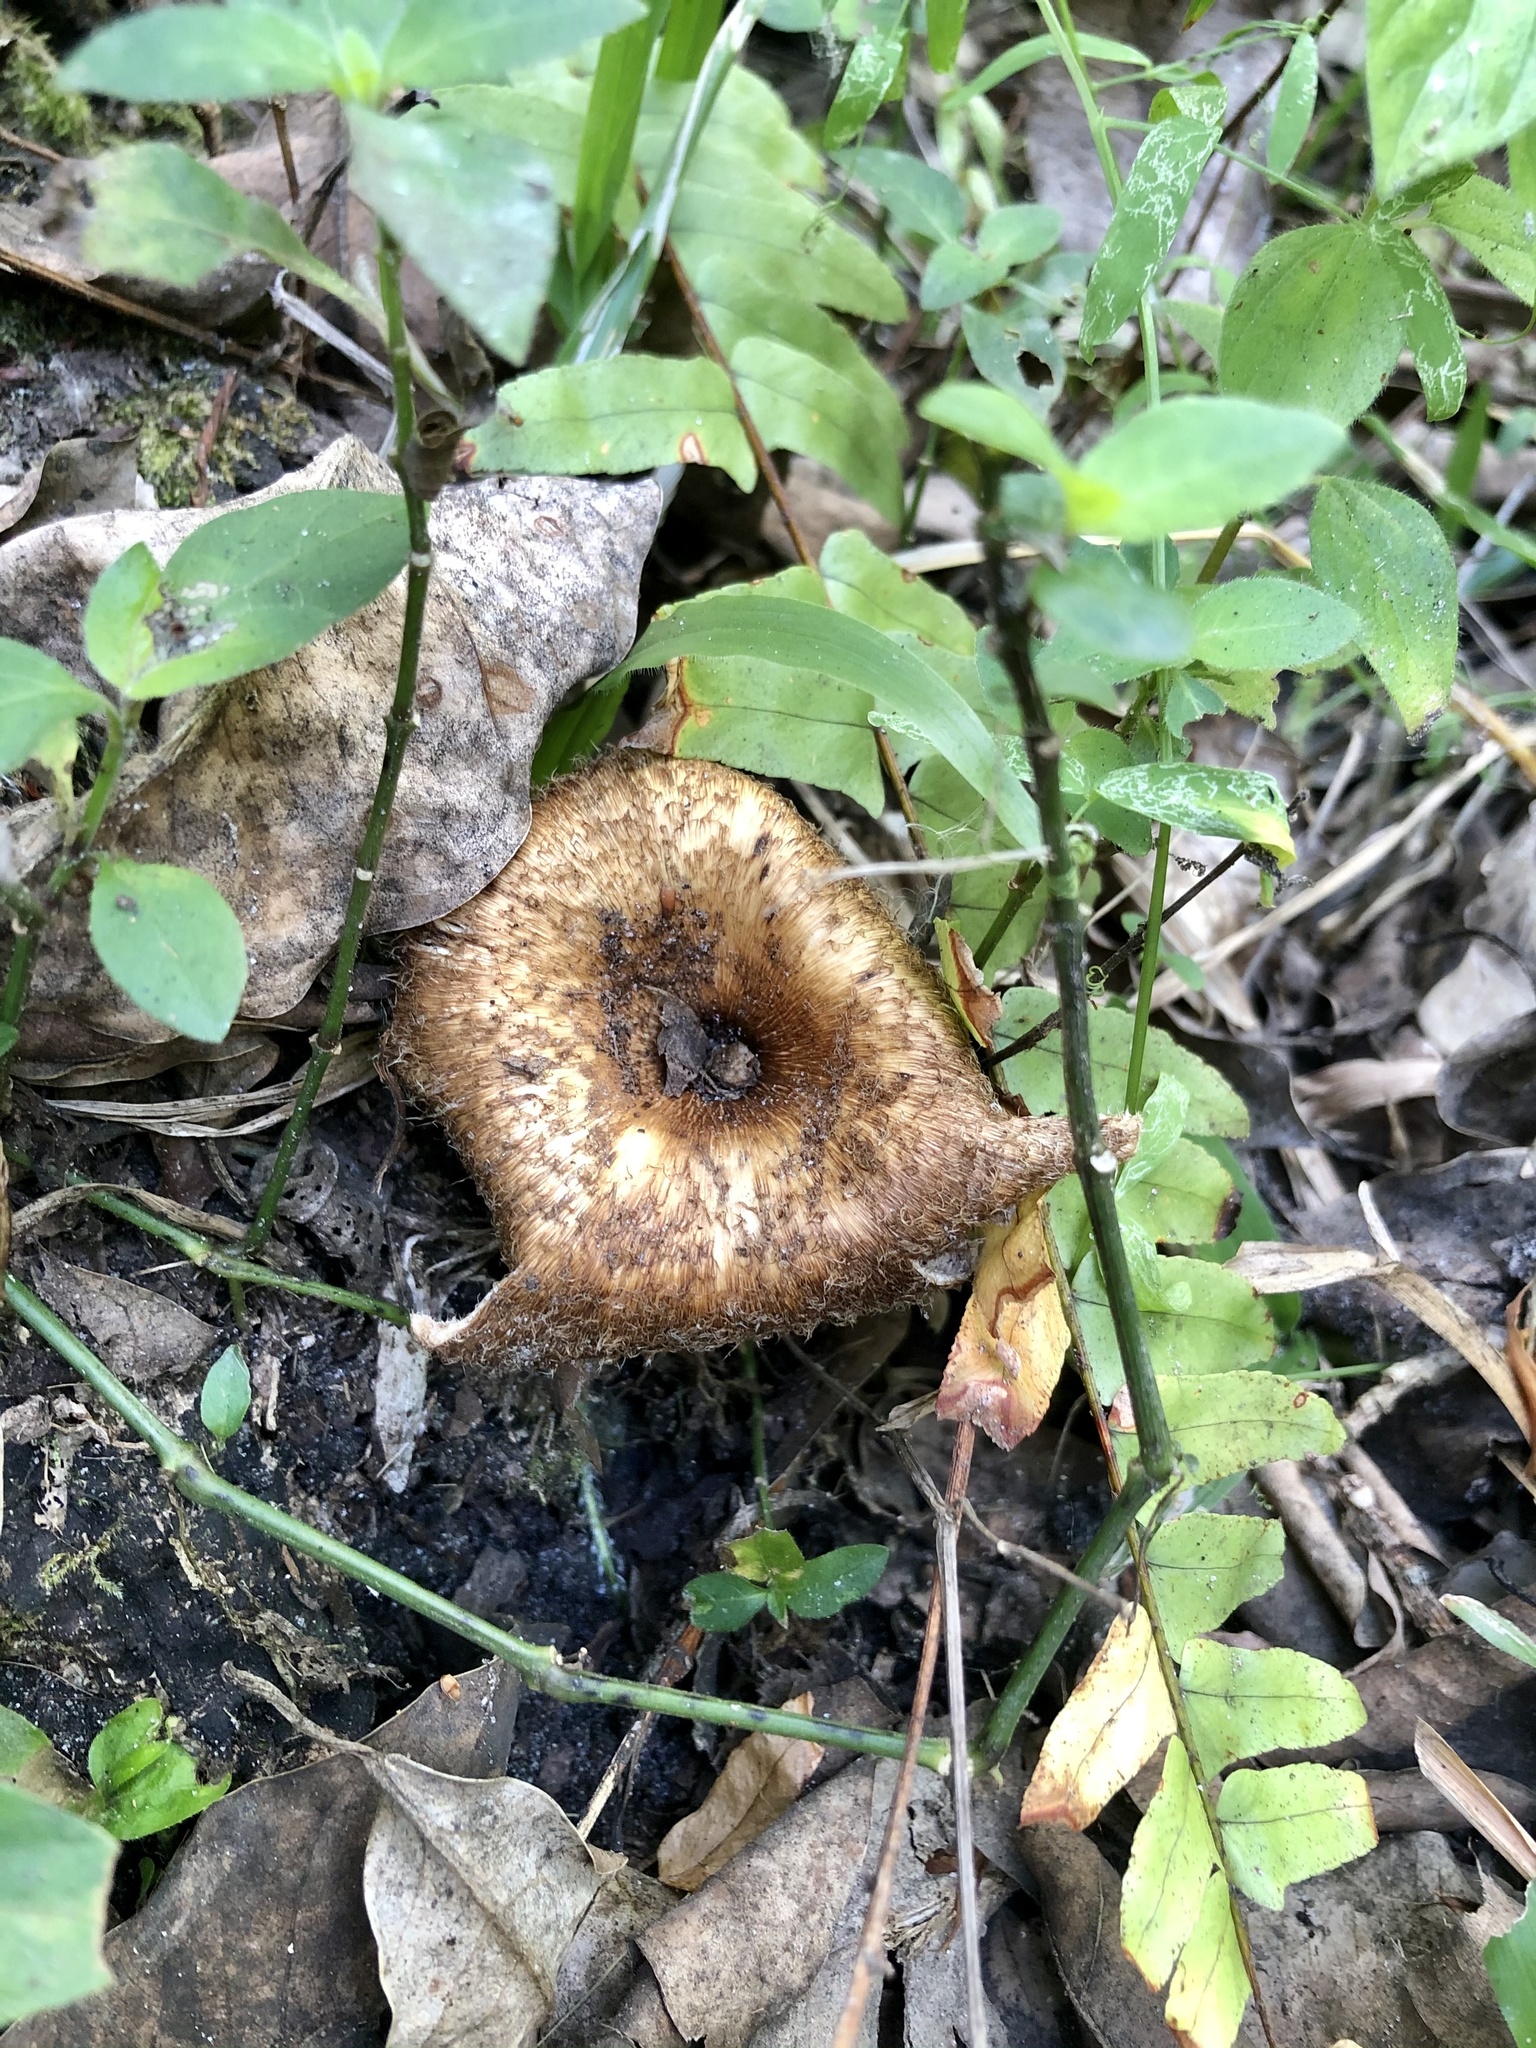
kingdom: Fungi
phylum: Basidiomycota
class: Agaricomycetes
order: Polyporales
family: Polyporaceae
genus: Lentinus
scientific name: Lentinus crinitus
